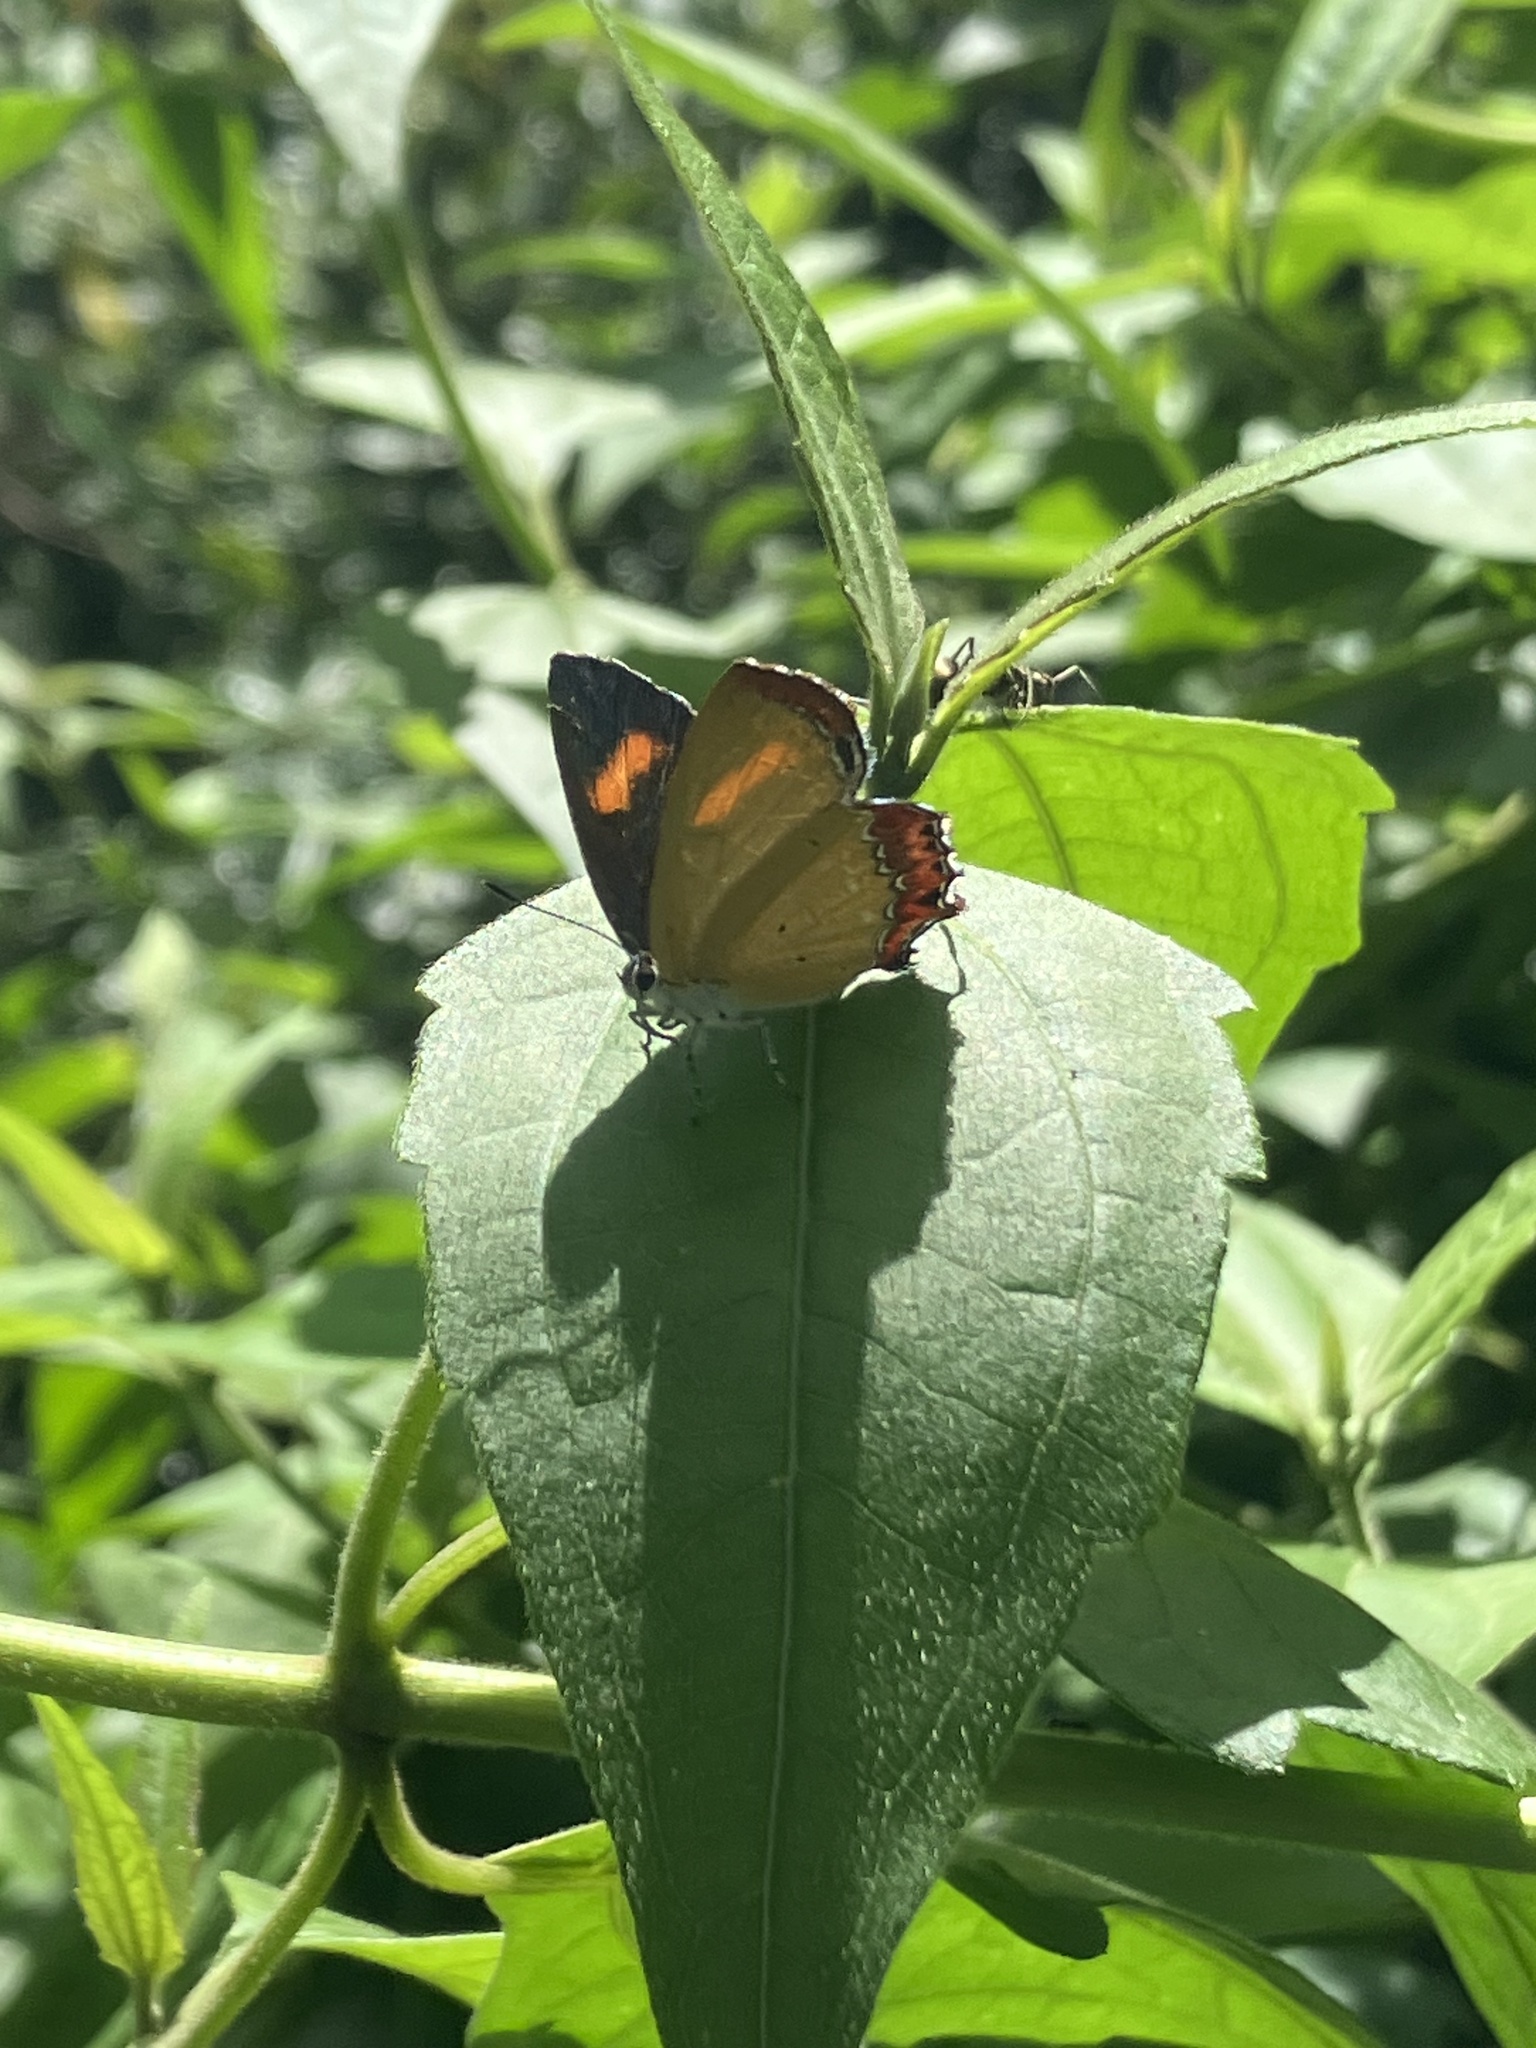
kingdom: Animalia
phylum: Arthropoda
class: Insecta
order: Lepidoptera
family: Lycaenidae
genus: Heliophorus
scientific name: Heliophorus ila
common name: Restricted purple sapphire
